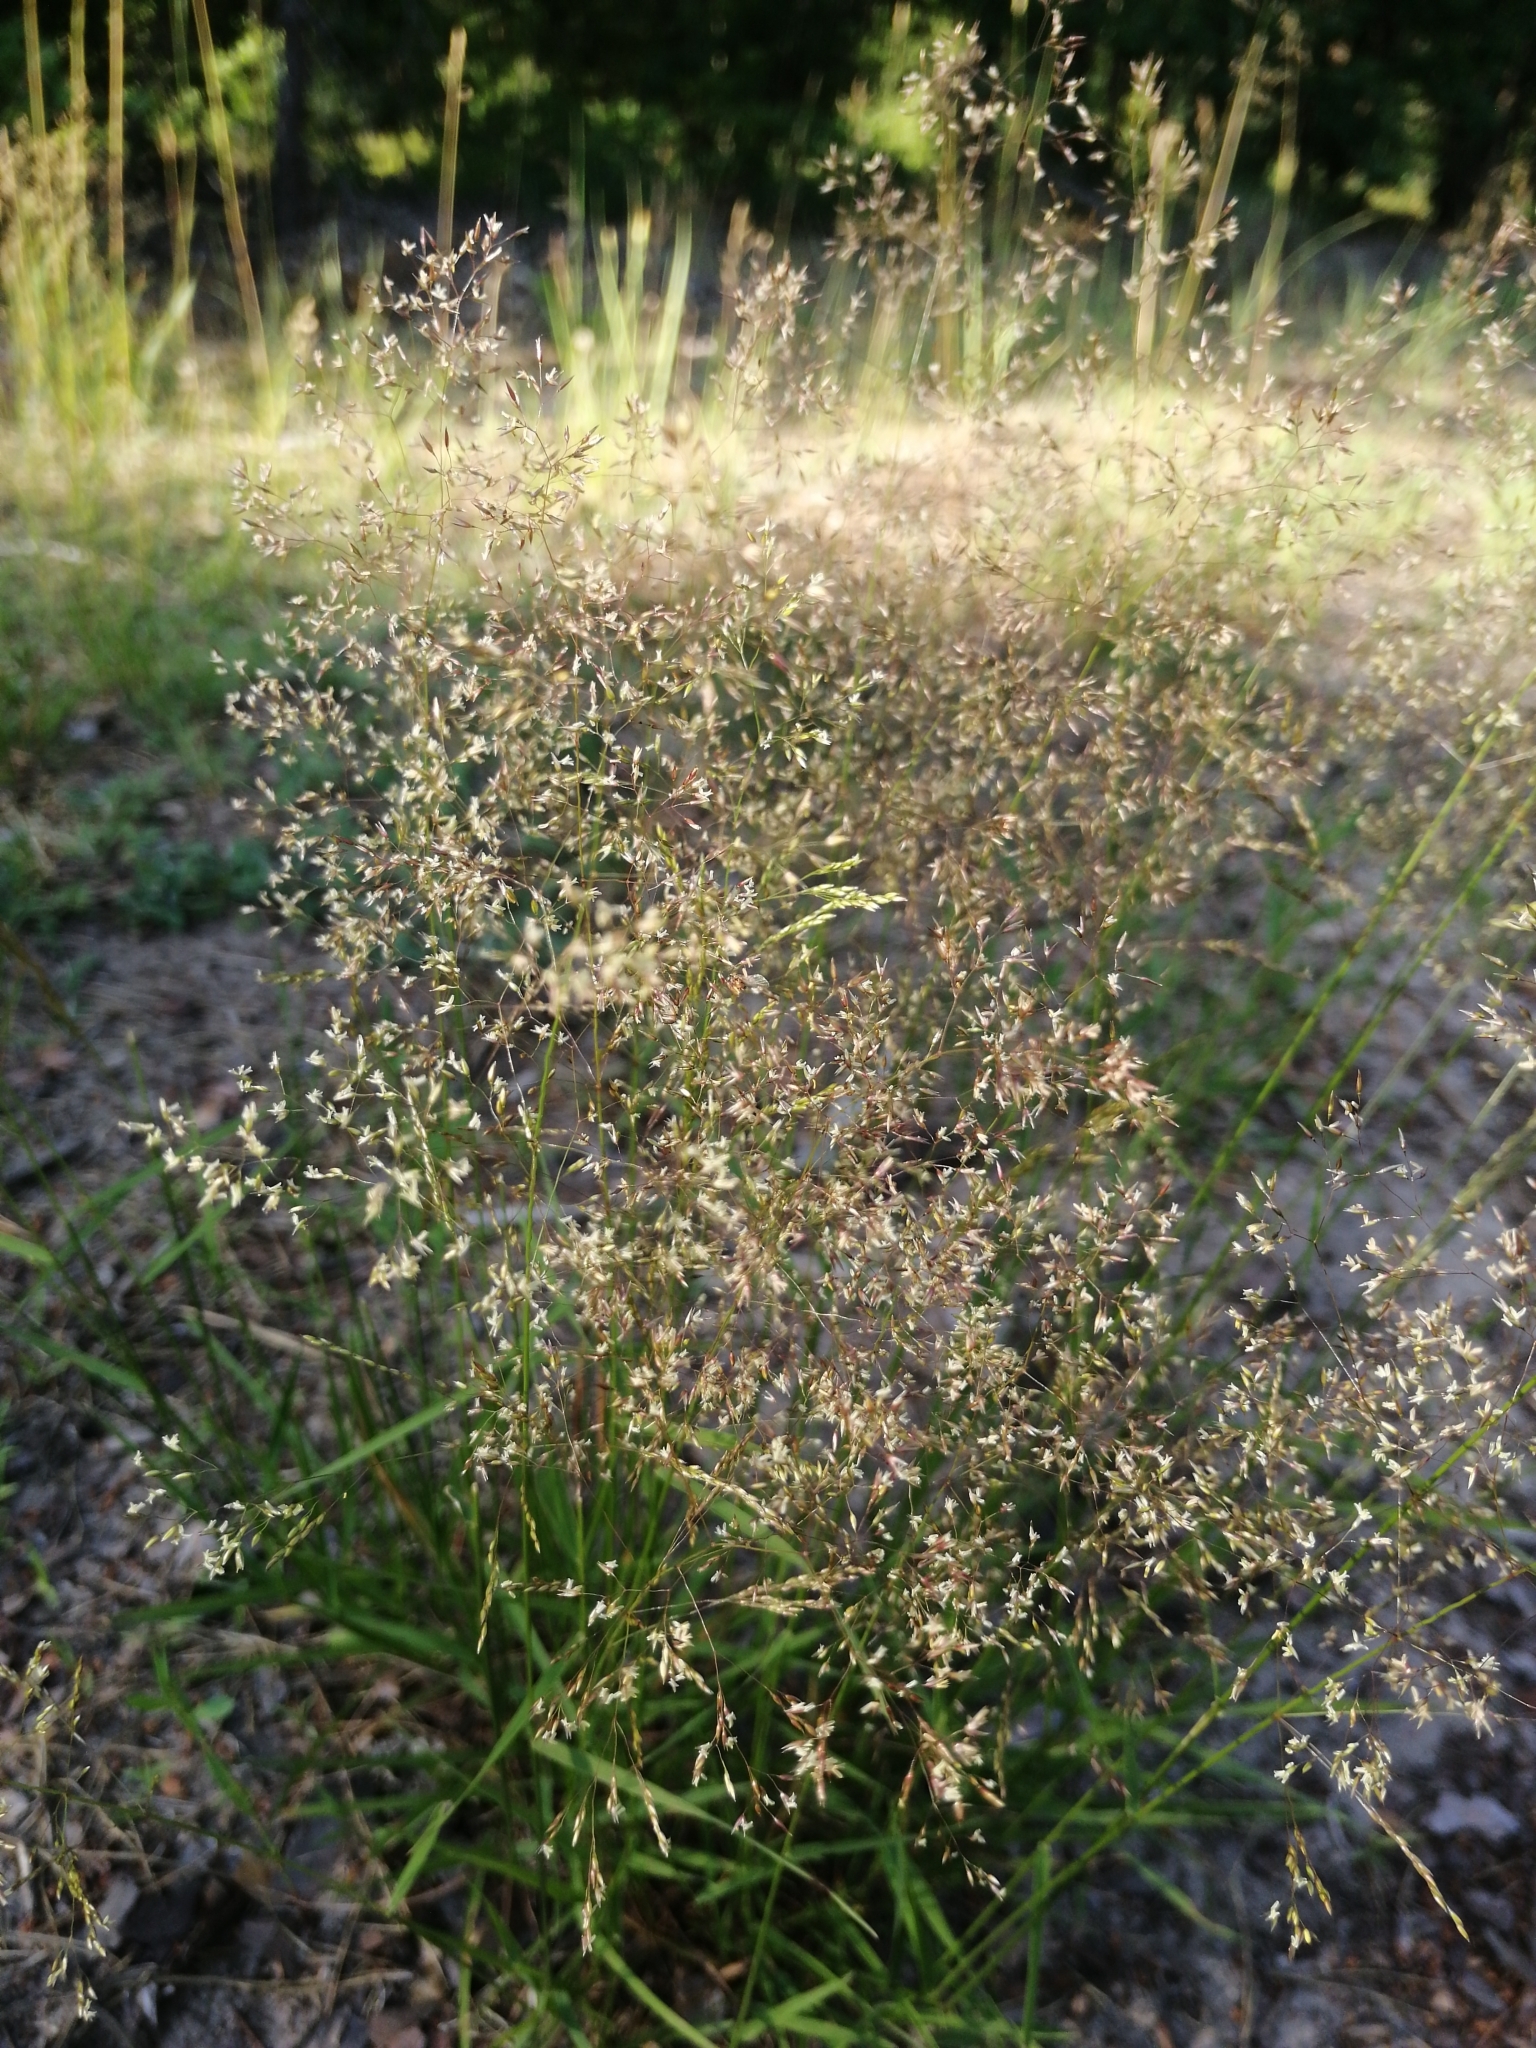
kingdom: Plantae
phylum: Tracheophyta
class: Liliopsida
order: Poales
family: Poaceae
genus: Agrostis
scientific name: Agrostis capillaris
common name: Colonial bentgrass
